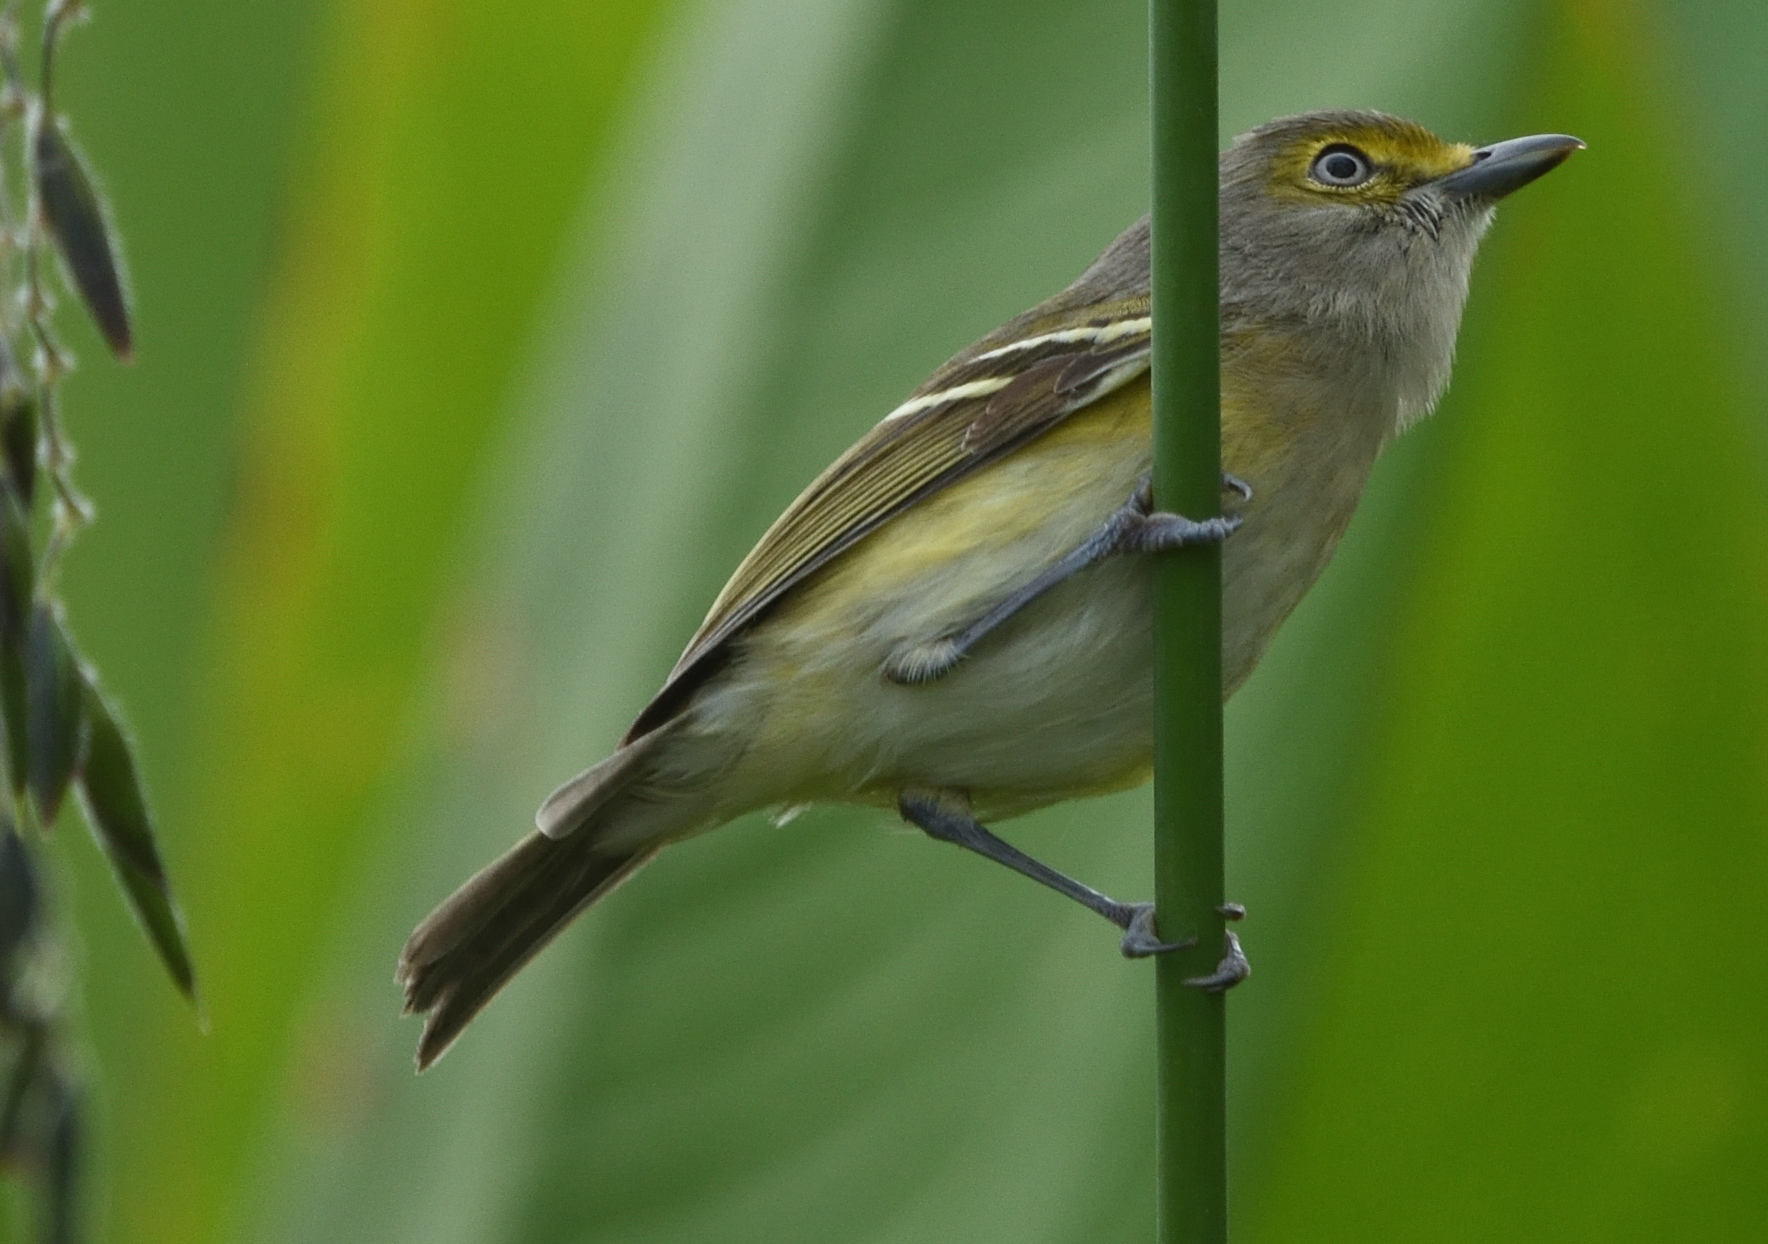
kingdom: Animalia
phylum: Chordata
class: Aves
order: Passeriformes
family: Vireonidae
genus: Vireo
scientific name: Vireo griseus
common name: White-eyed vireo
